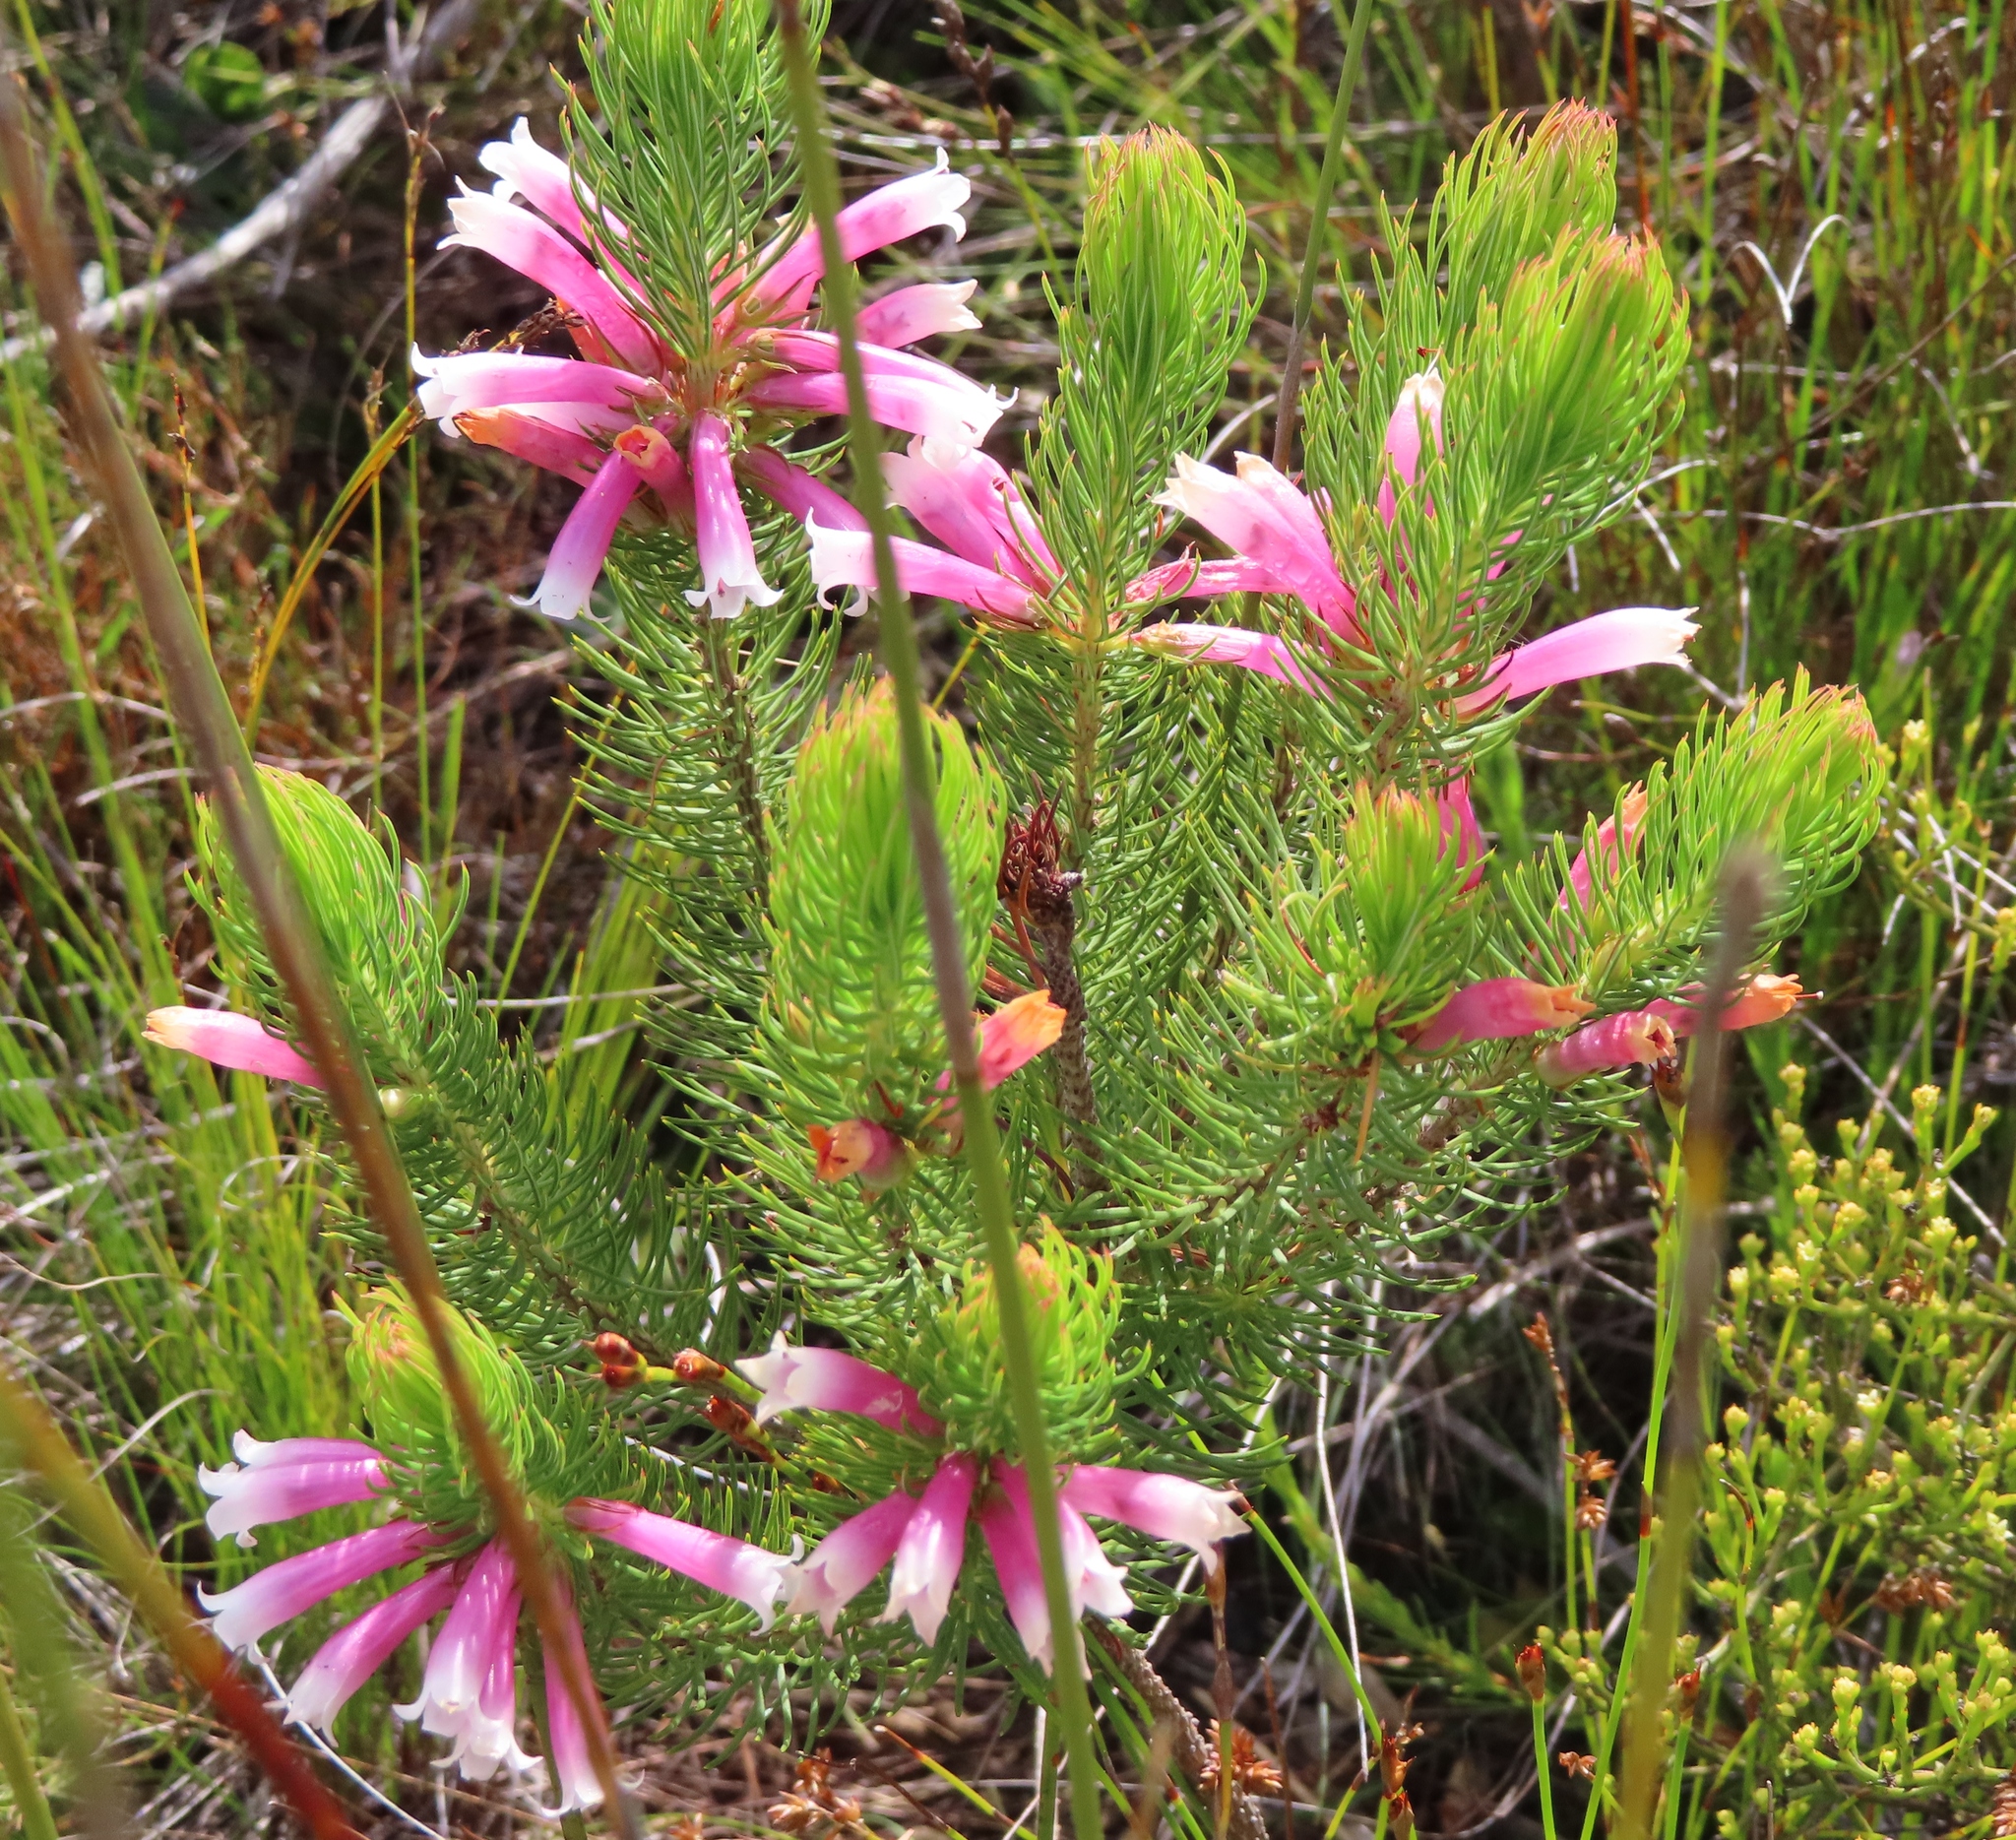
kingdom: Plantae
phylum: Tracheophyta
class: Magnoliopsida
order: Ericales
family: Ericaceae
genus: Erica
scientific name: Erica viscaria
